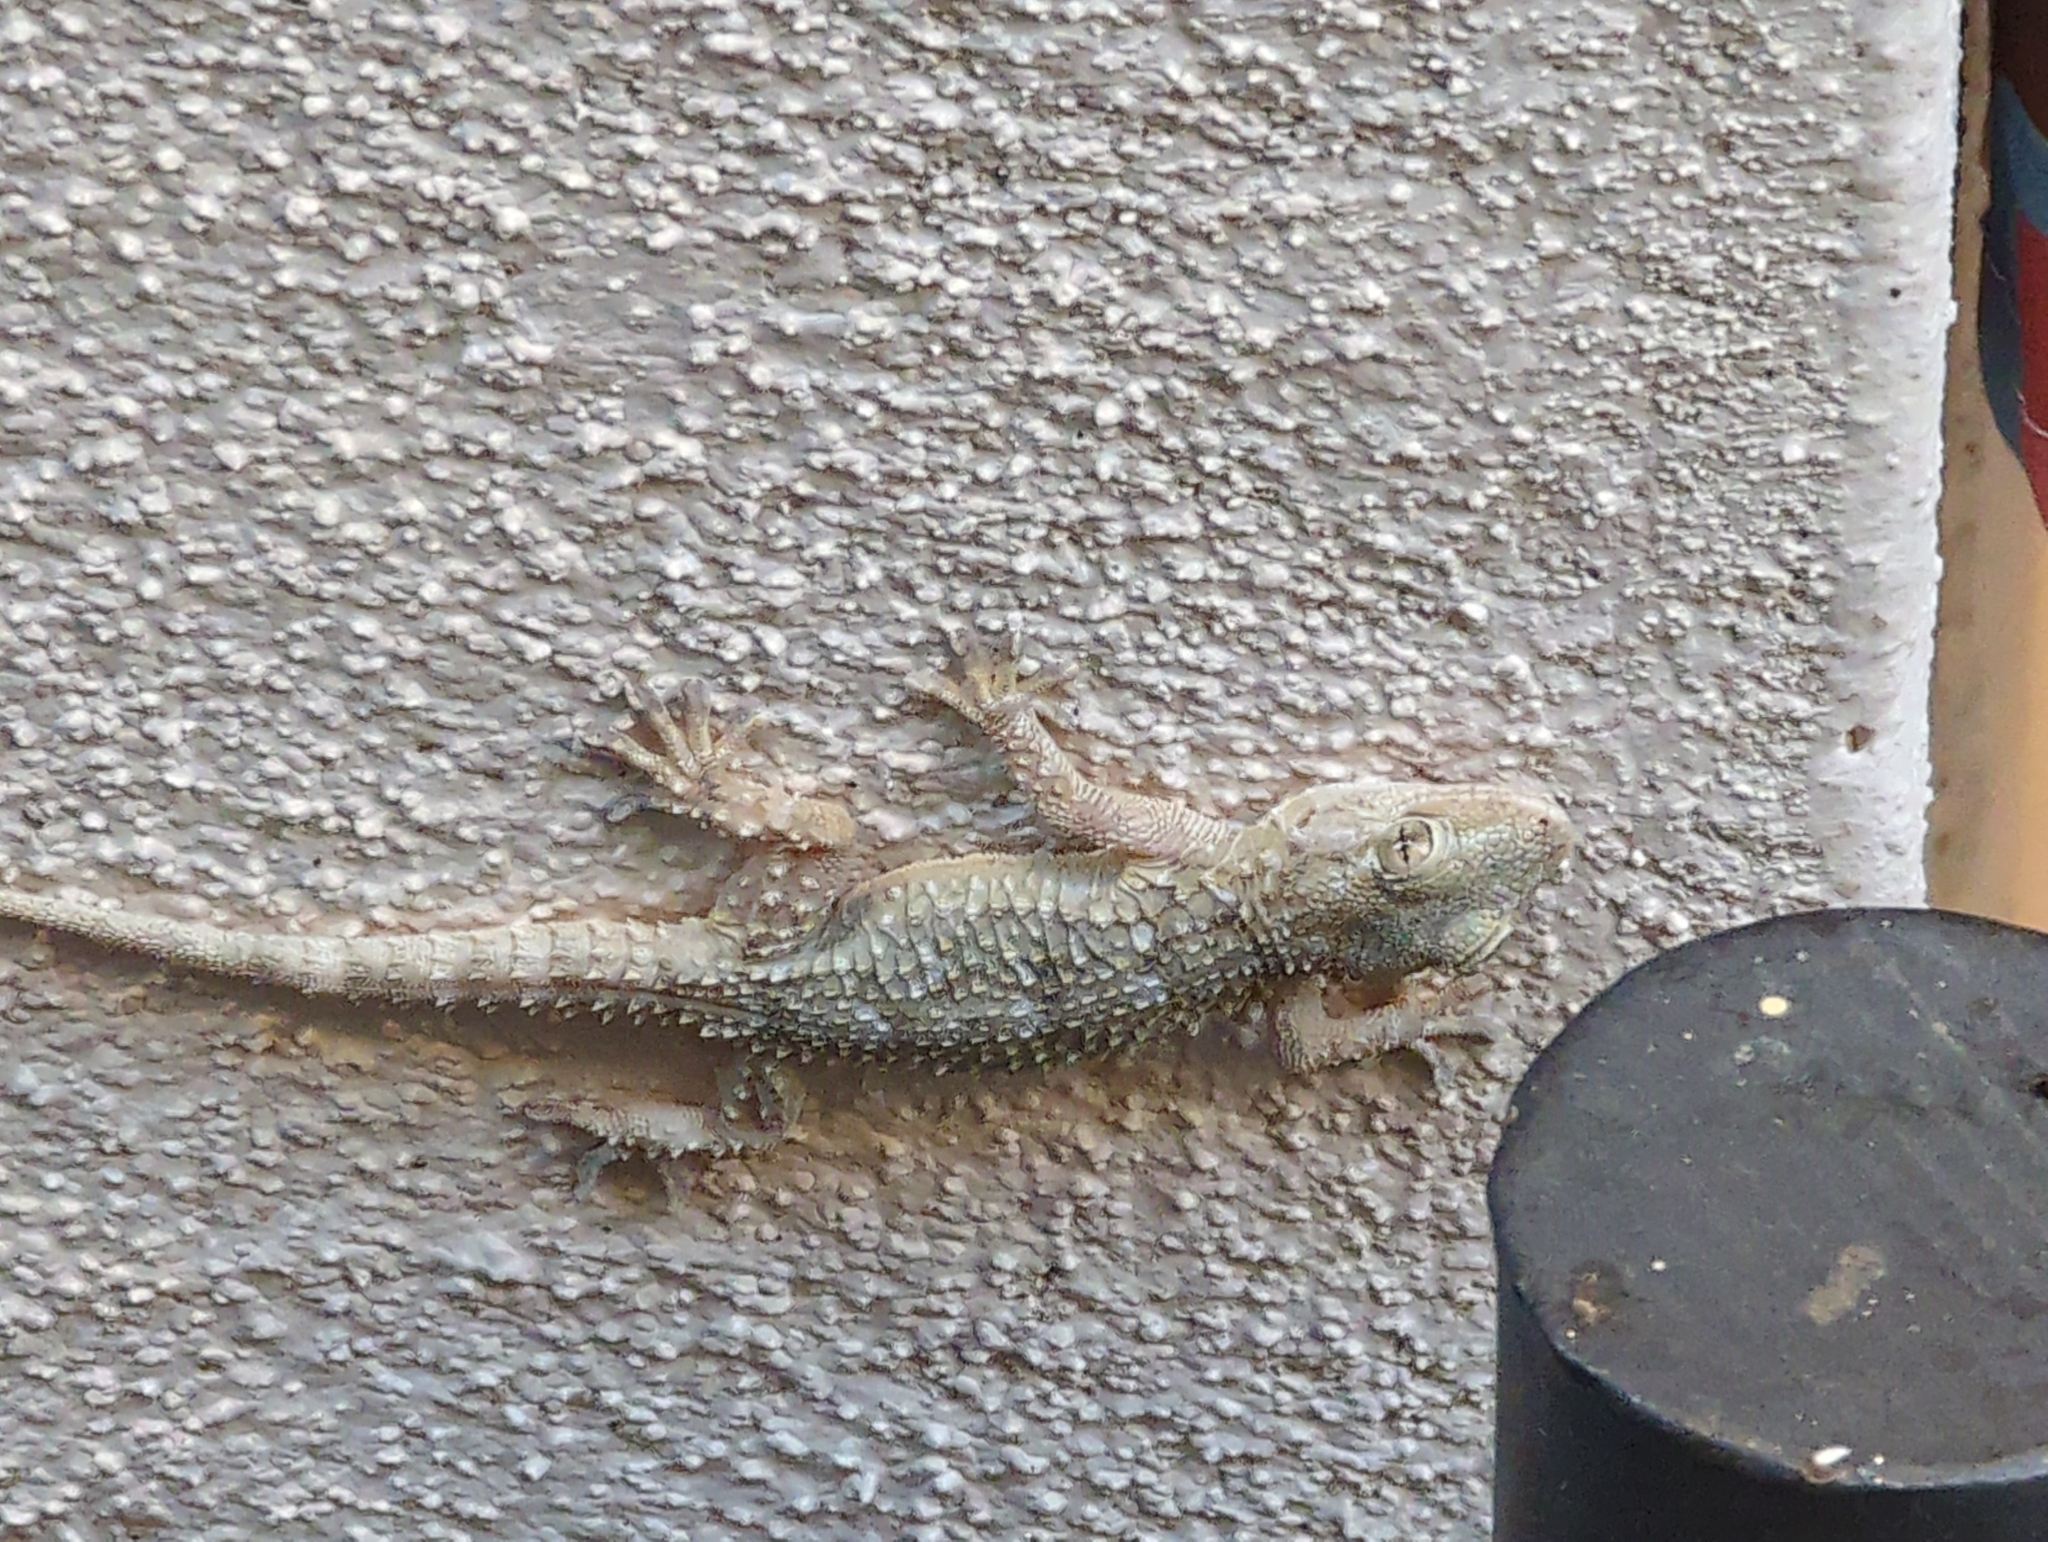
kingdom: Animalia
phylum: Chordata
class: Squamata
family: Phyllodactylidae
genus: Tarentola
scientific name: Tarentola mauritanica
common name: Moorish gecko
